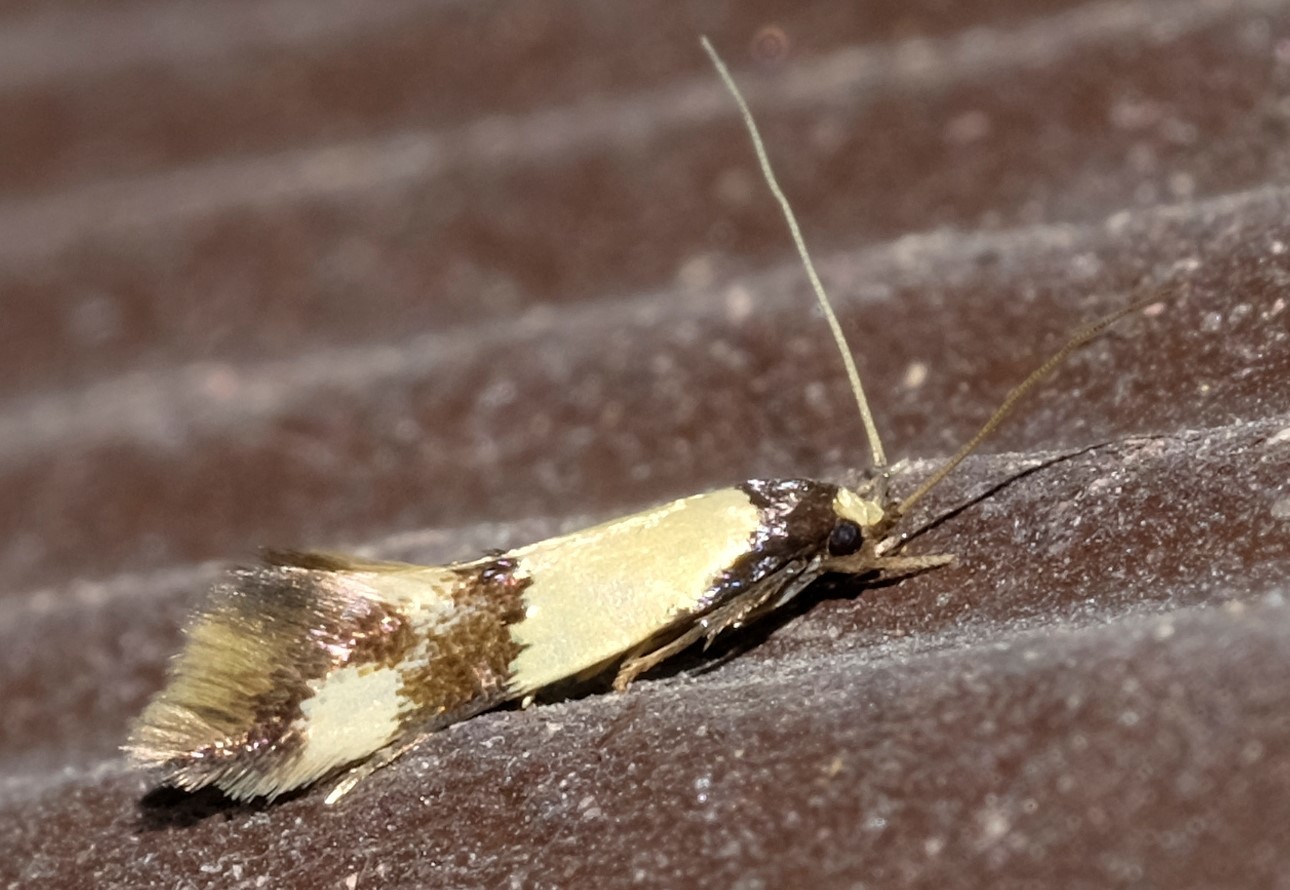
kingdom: Animalia
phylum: Arthropoda
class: Insecta
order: Lepidoptera
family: Tineidae
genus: Opogona
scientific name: Opogona comptella
